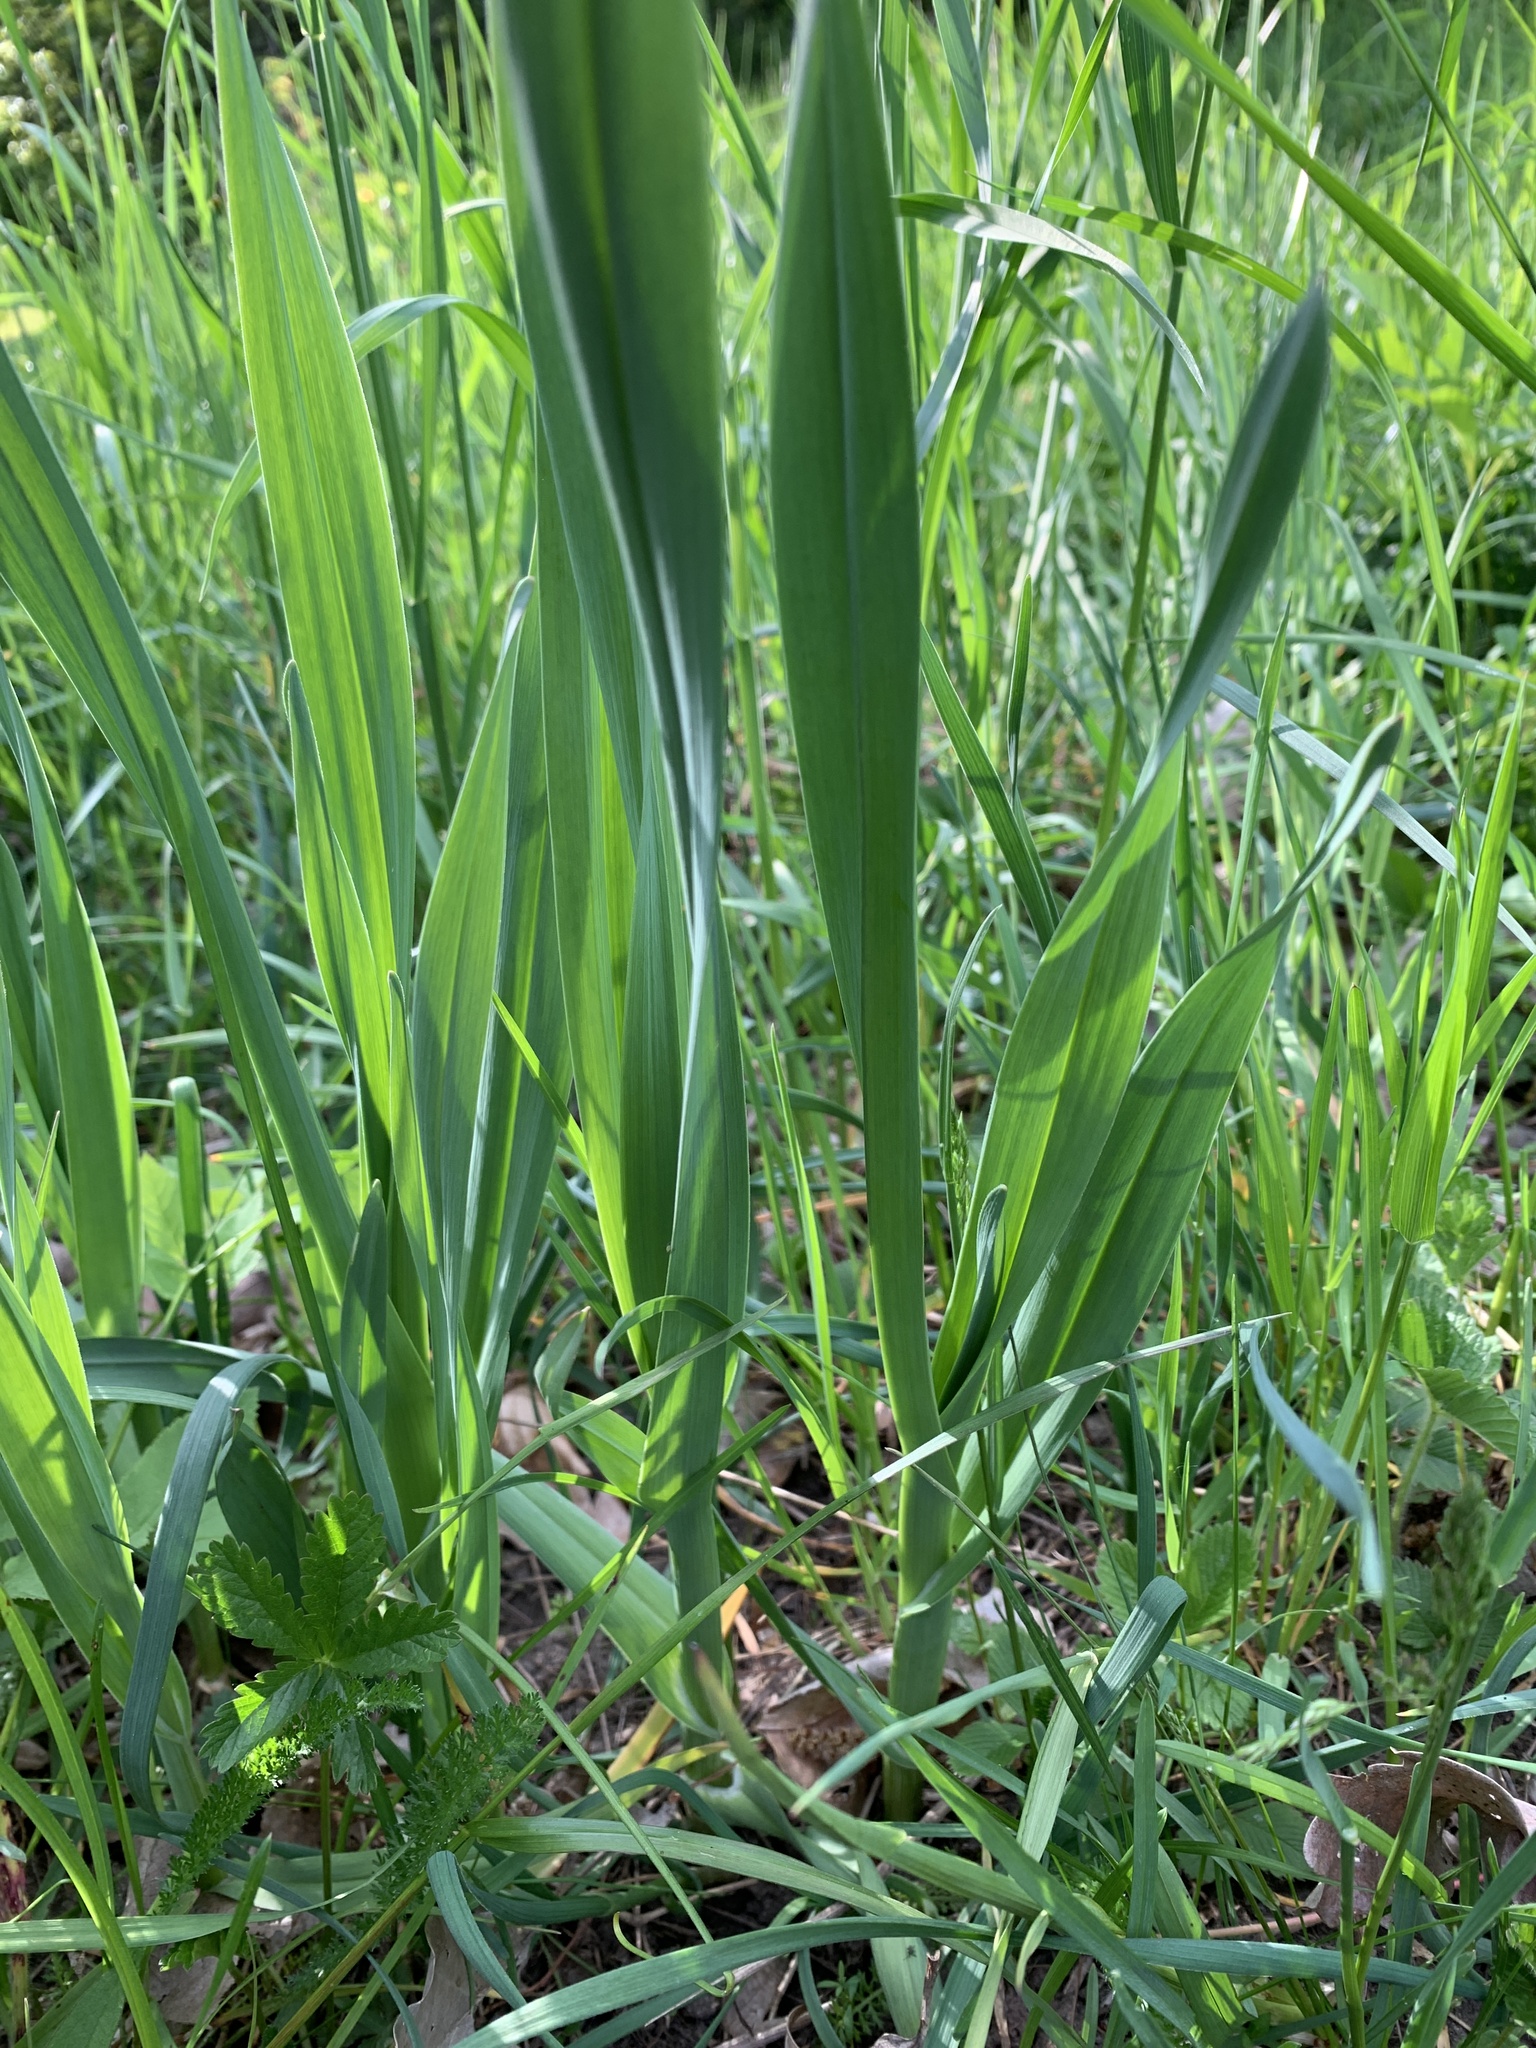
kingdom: Plantae
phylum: Tracheophyta
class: Liliopsida
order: Asparagales
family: Amaryllidaceae
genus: Allium
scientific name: Allium scorodoprasum
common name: Sand leek
